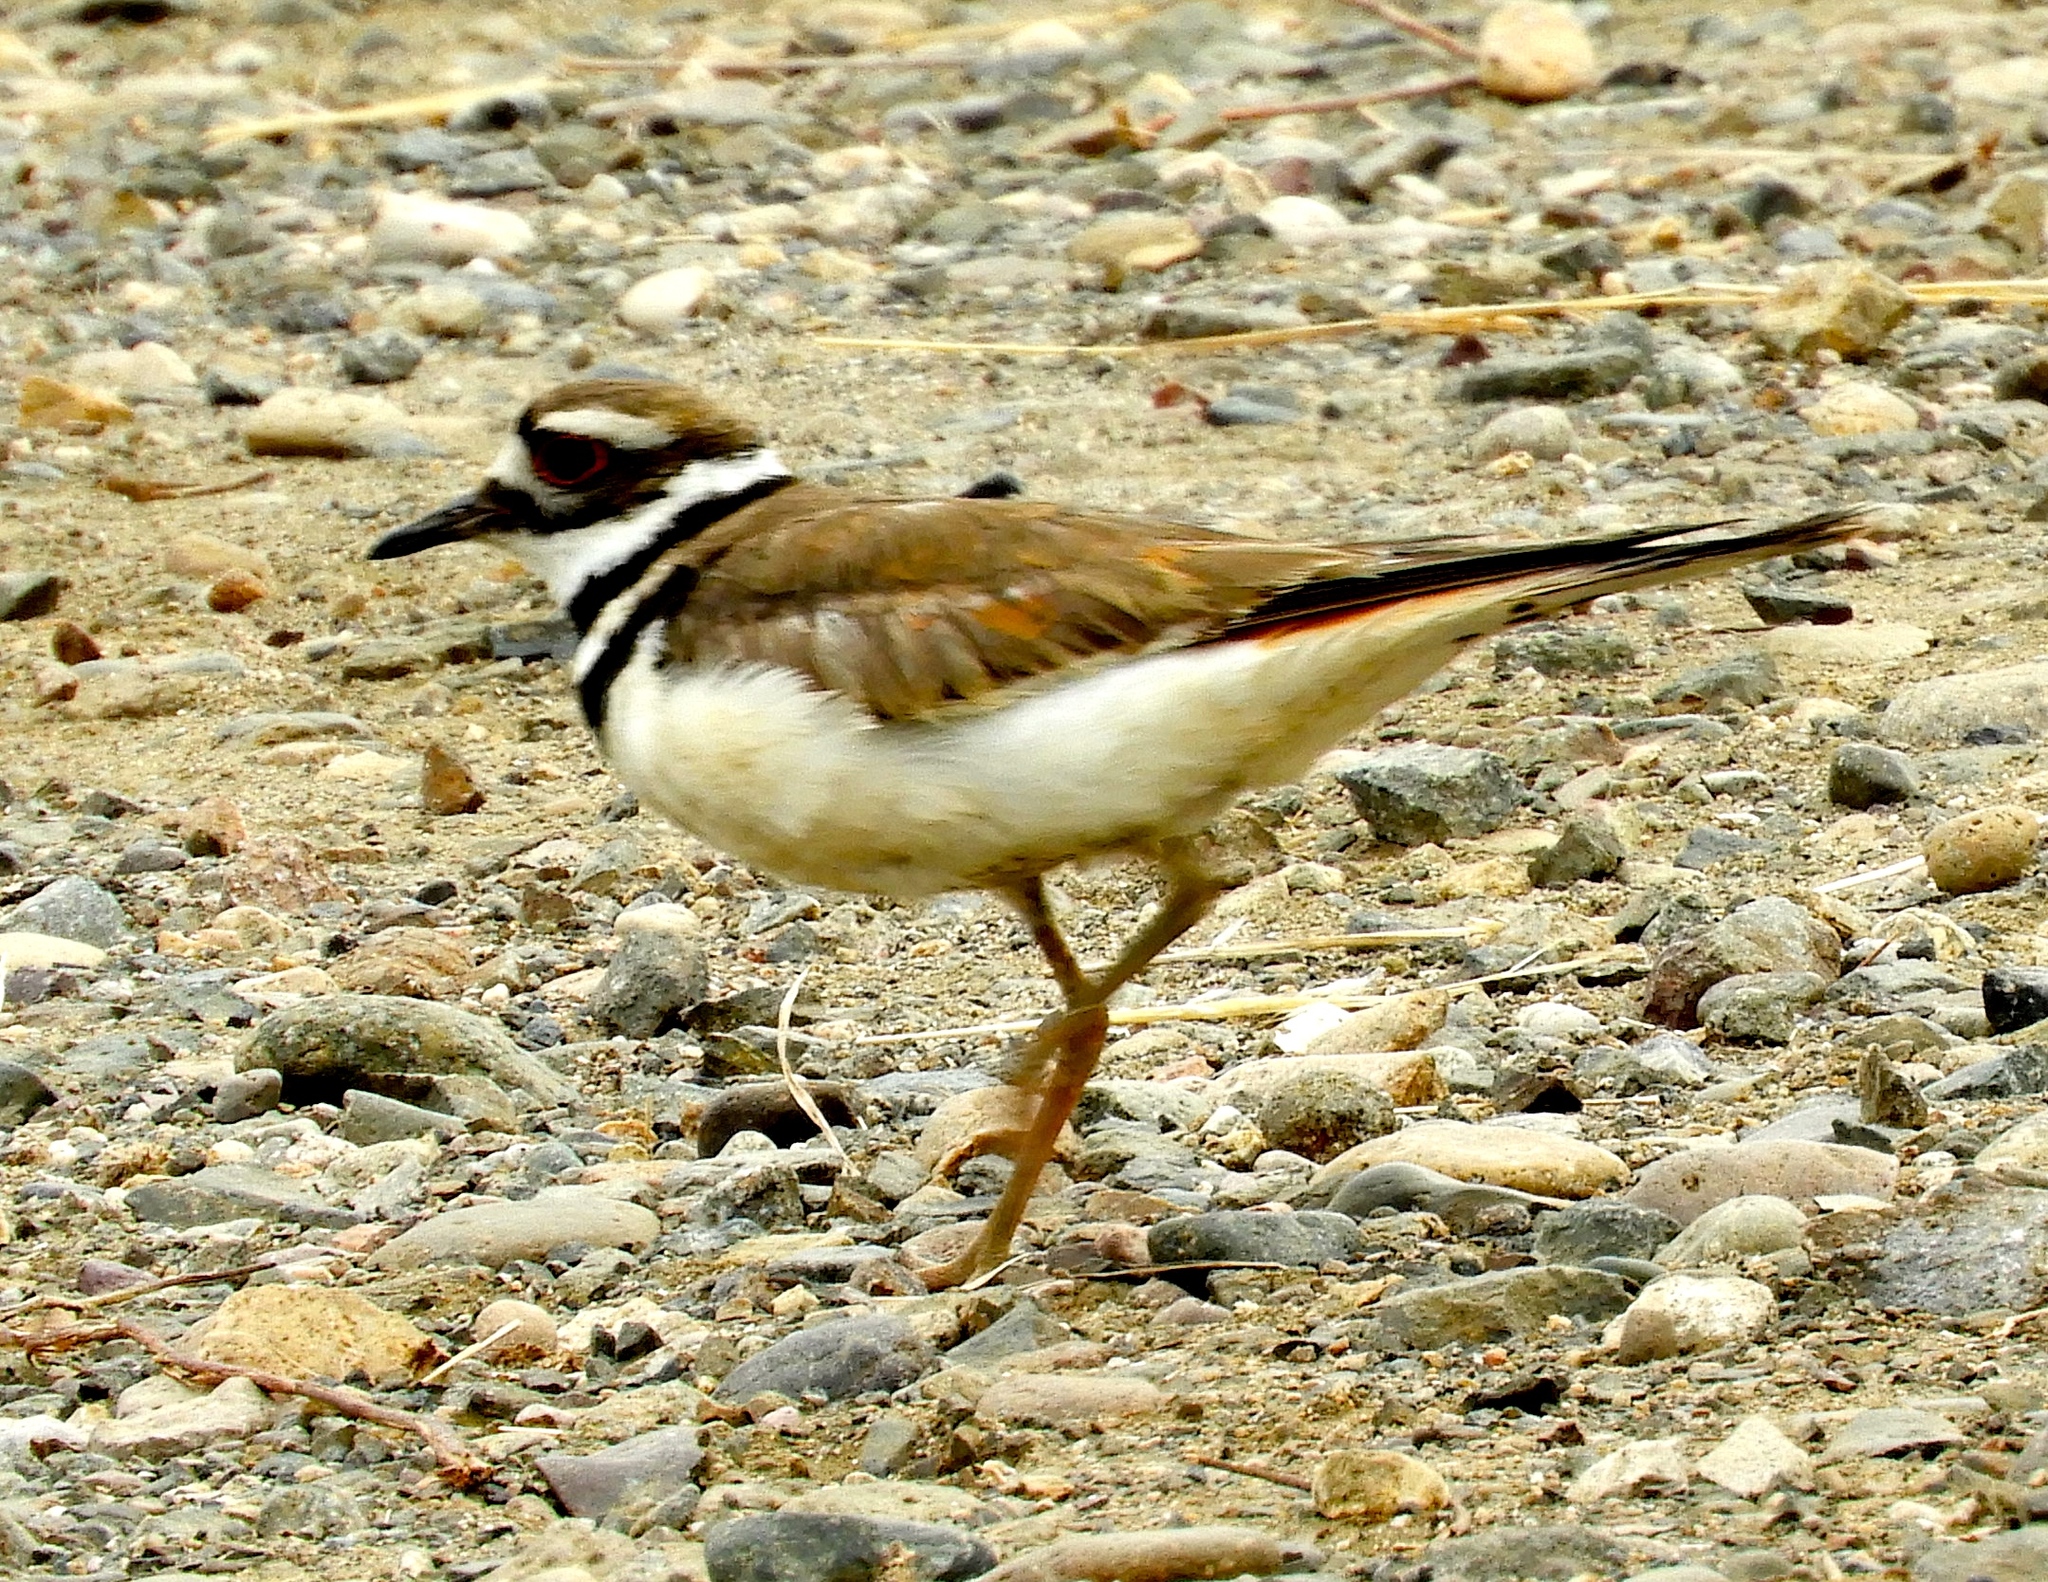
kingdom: Animalia
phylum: Chordata
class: Aves
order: Charadriiformes
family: Charadriidae
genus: Charadrius
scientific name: Charadrius vociferus
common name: Killdeer
